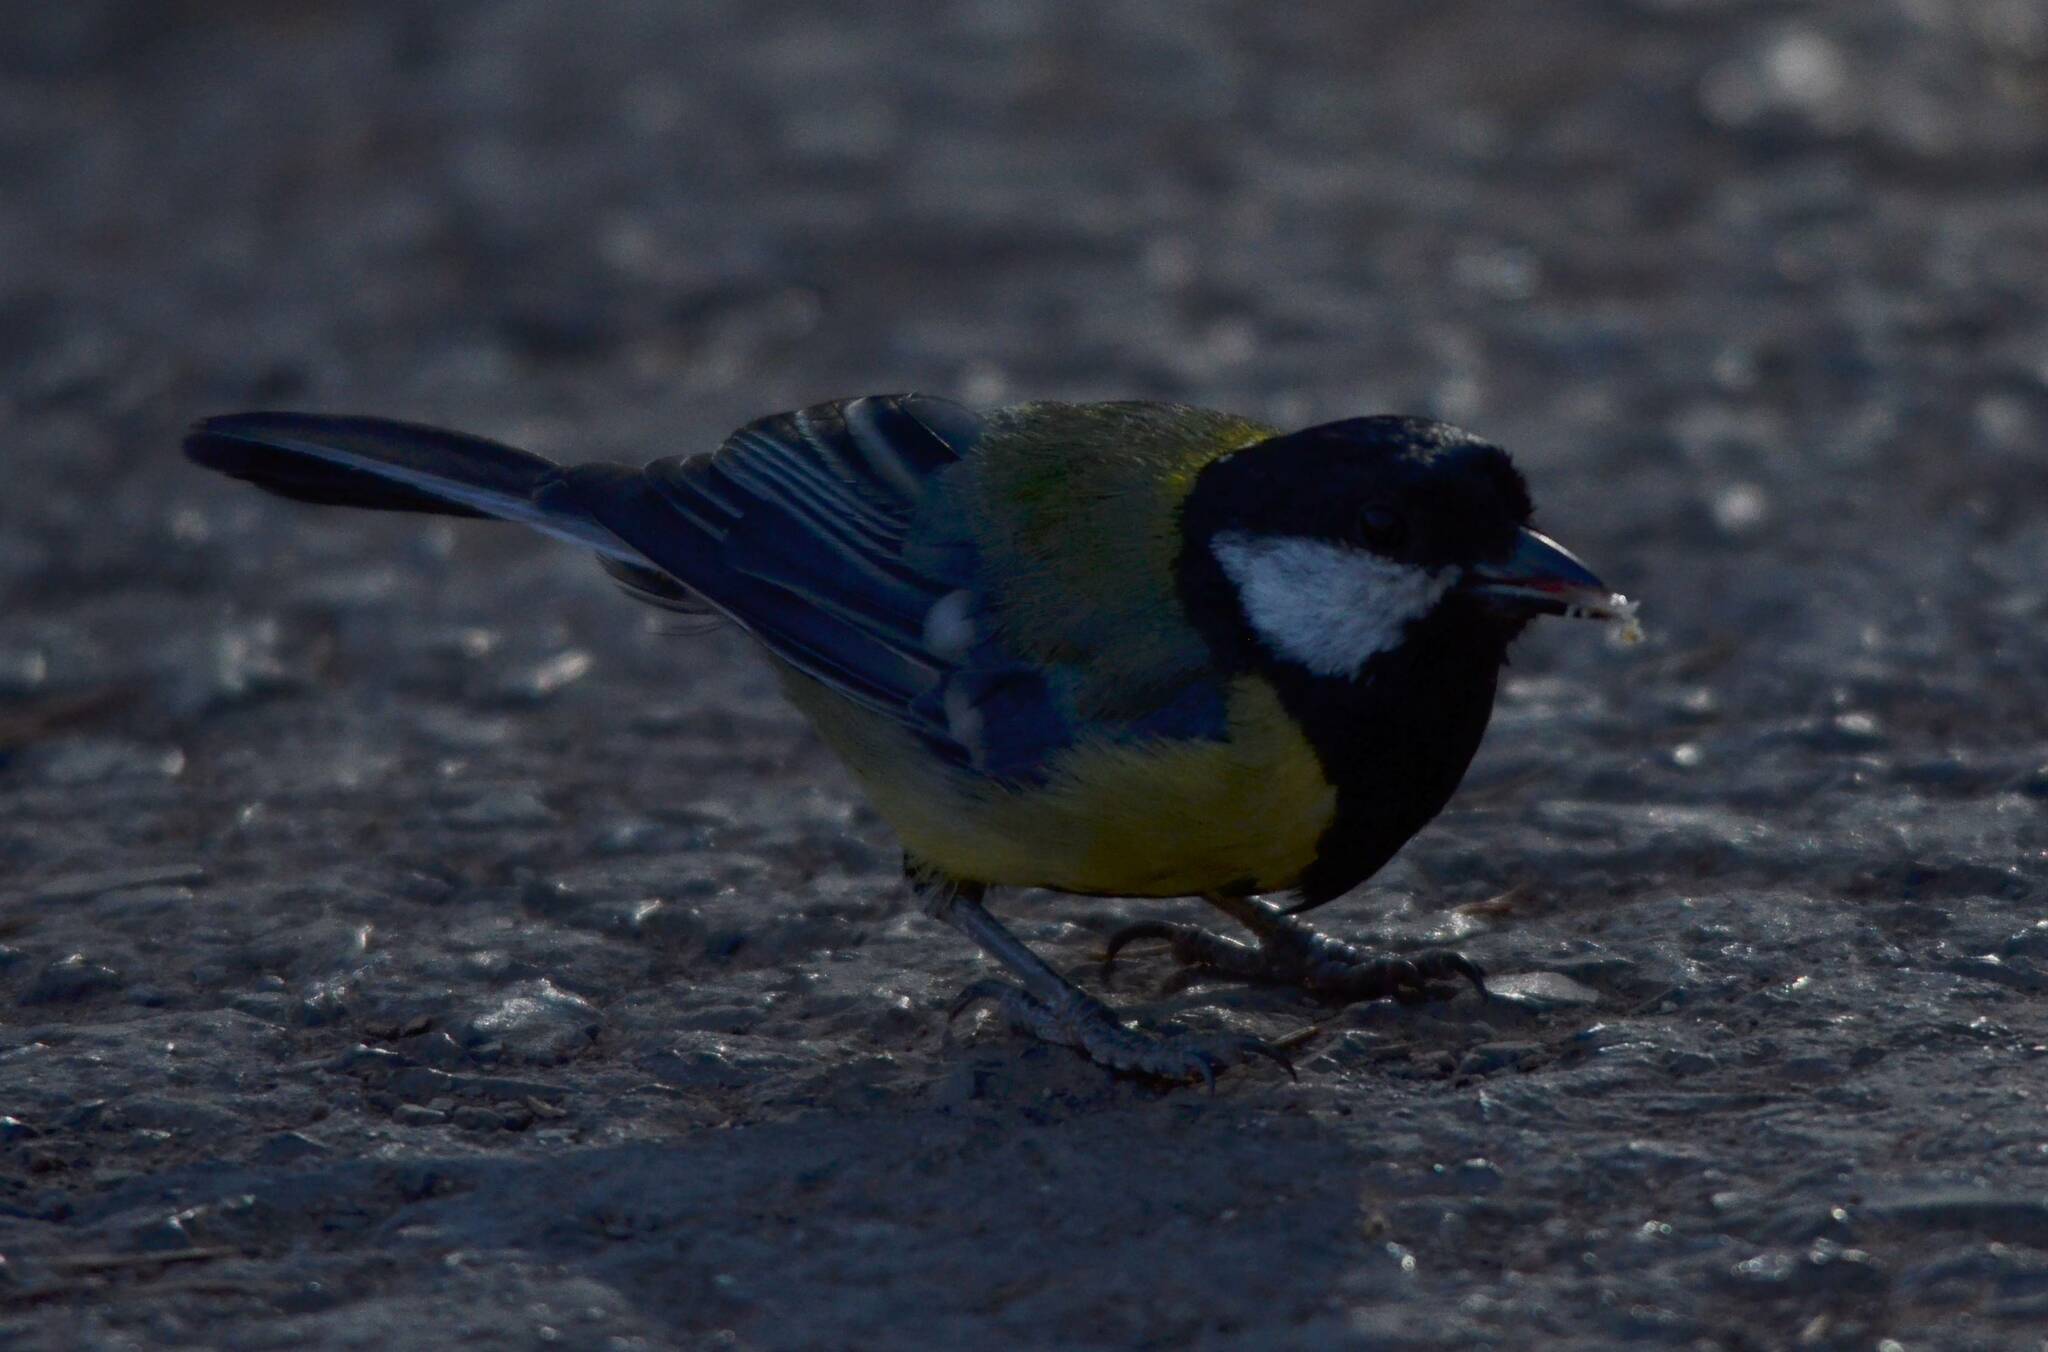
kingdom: Animalia
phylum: Chordata
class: Aves
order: Passeriformes
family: Paridae
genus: Parus
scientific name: Parus major
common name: Great tit
